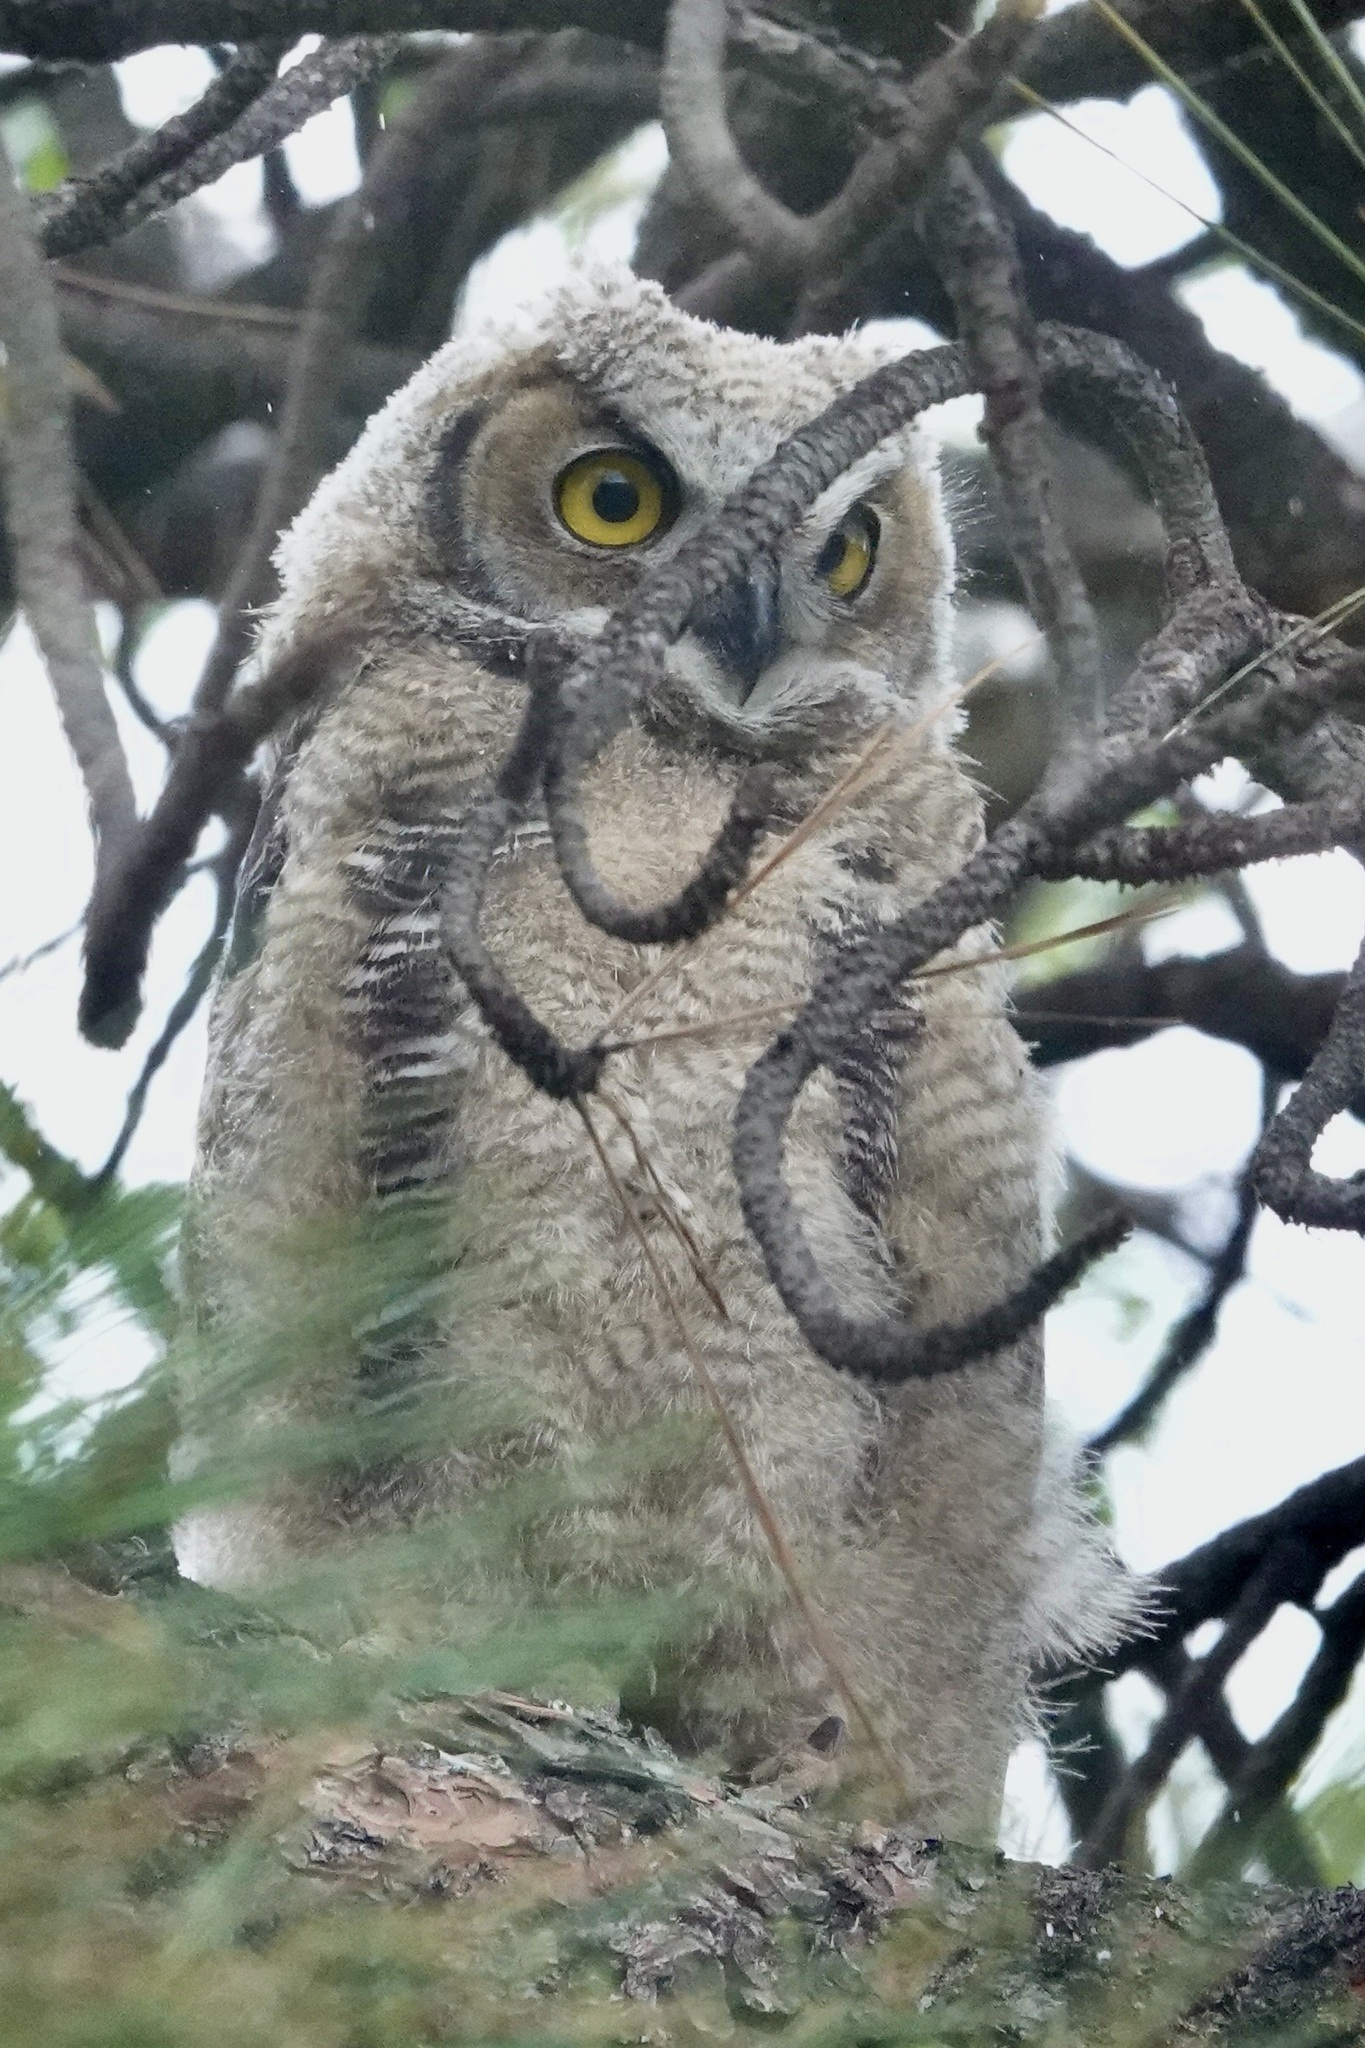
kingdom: Animalia
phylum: Chordata
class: Aves
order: Strigiformes
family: Strigidae
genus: Bubo
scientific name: Bubo virginianus
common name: Great horned owl
